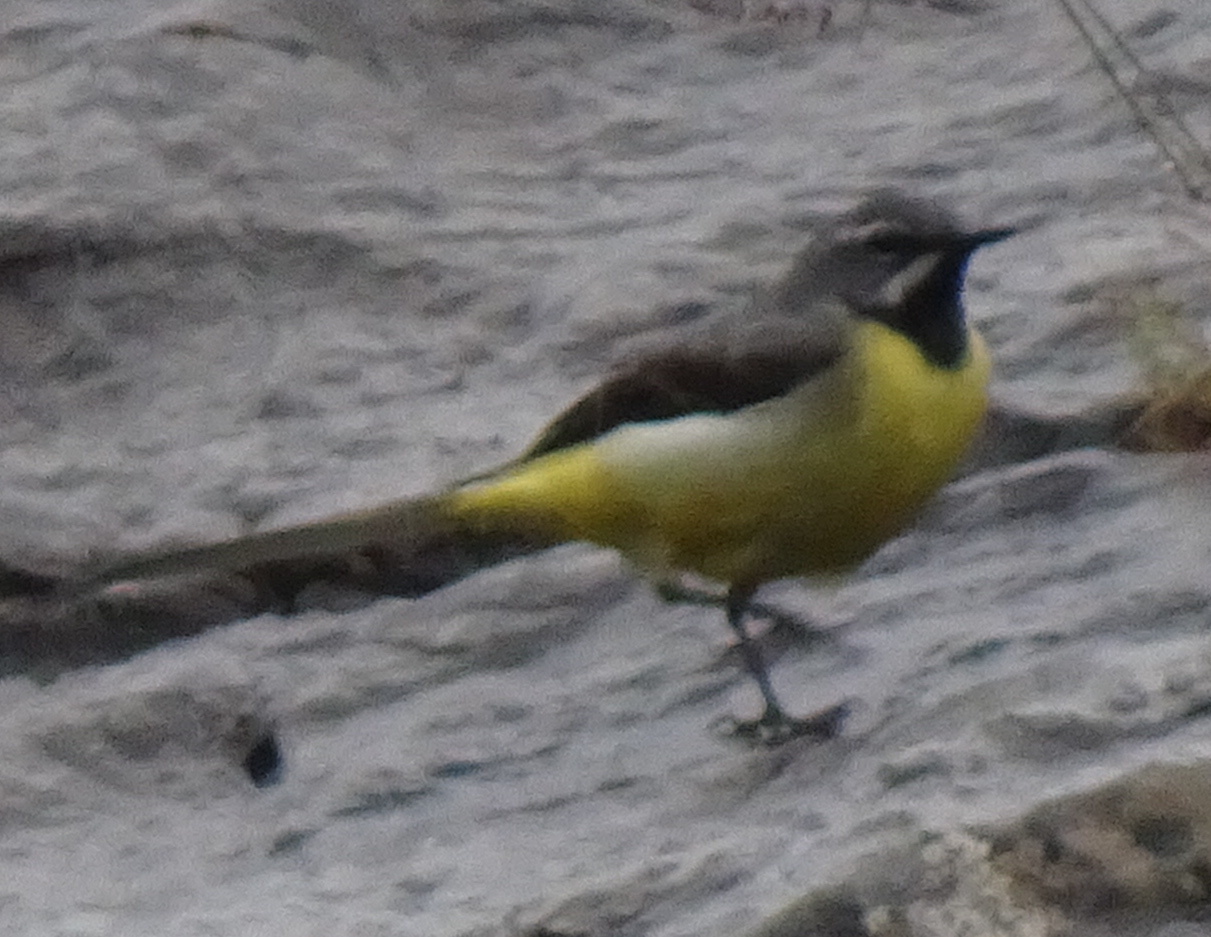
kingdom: Animalia
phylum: Chordata
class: Aves
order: Passeriformes
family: Motacillidae
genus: Motacilla
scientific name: Motacilla cinerea
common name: Grey wagtail
